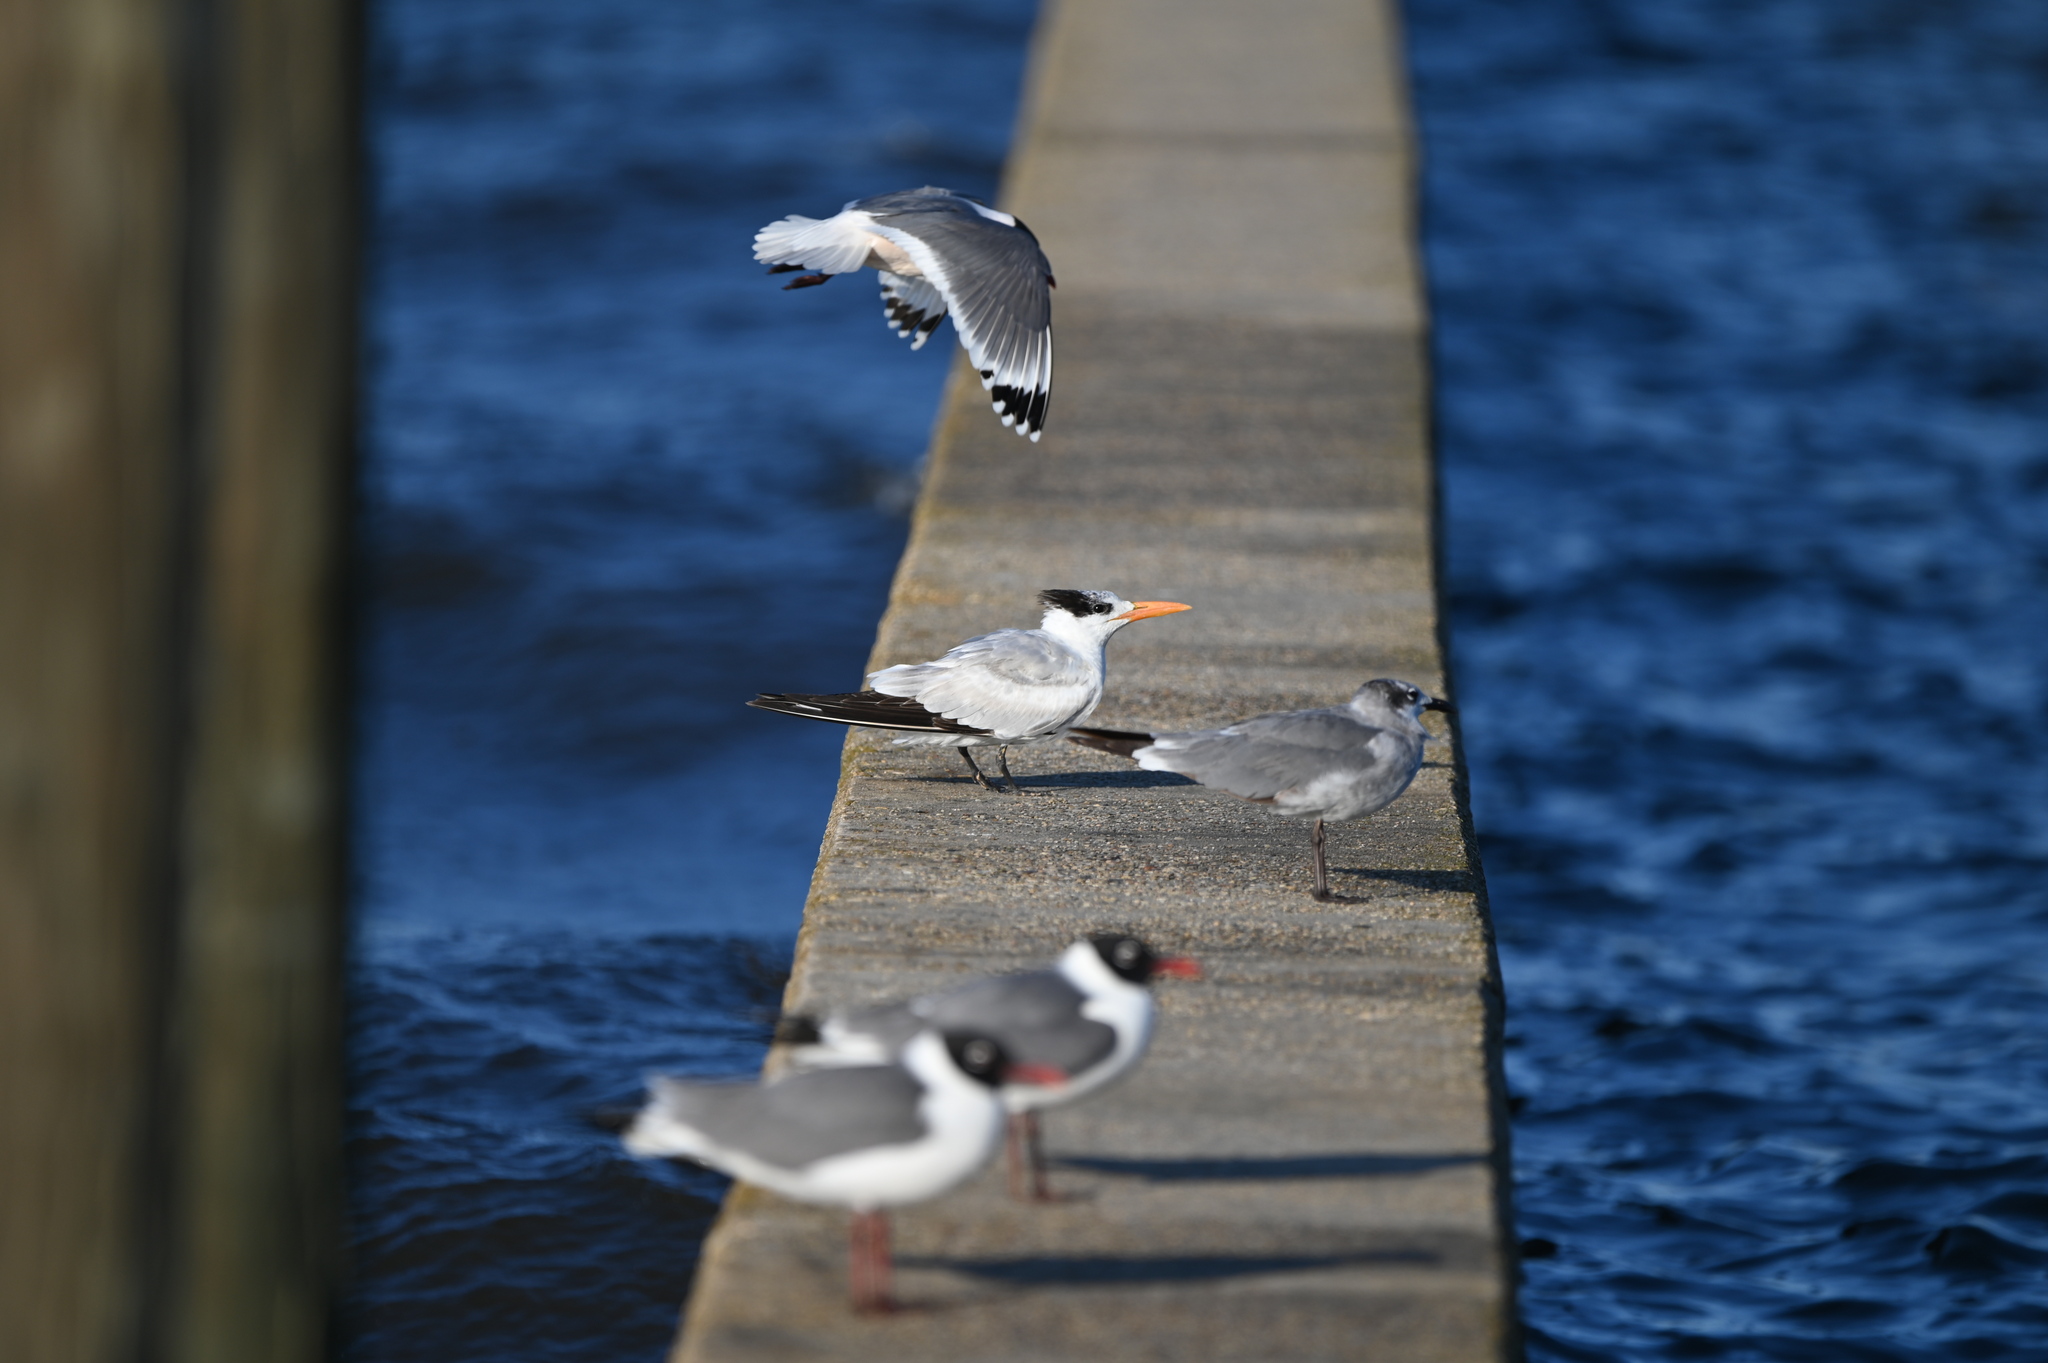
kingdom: Animalia
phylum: Chordata
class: Aves
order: Charadriiformes
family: Laridae
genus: Thalasseus
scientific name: Thalasseus maximus
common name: Royal tern
